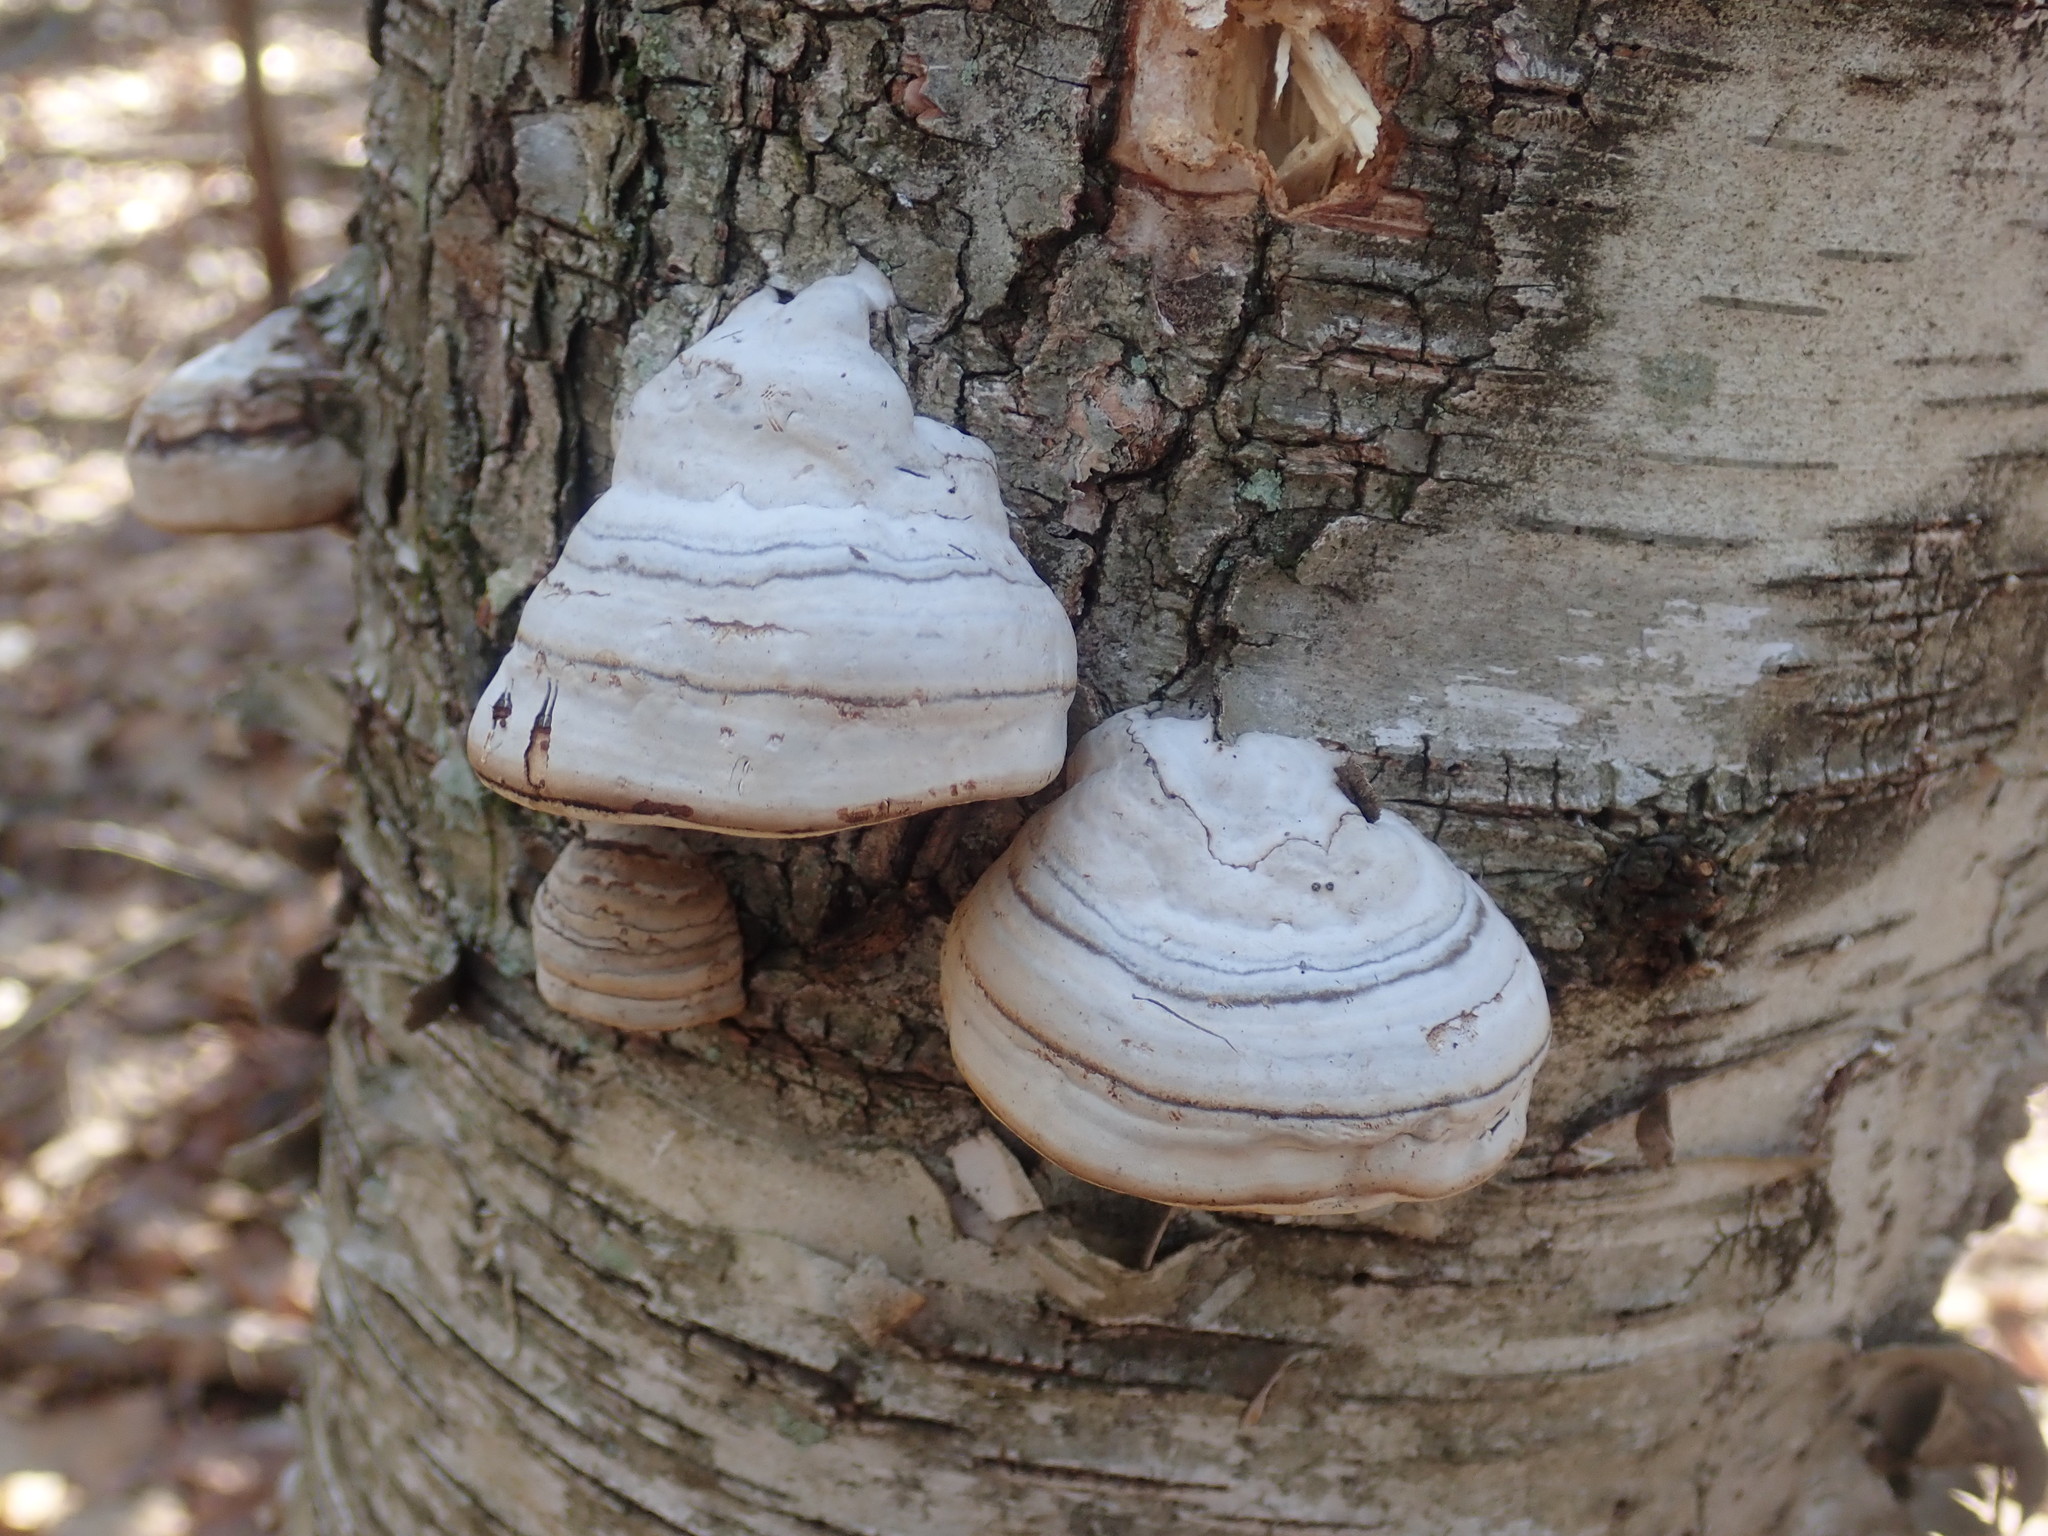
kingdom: Fungi
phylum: Basidiomycota
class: Agaricomycetes
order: Polyporales
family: Polyporaceae
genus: Fomes
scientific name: Fomes fomentarius
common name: Hoof fungus
